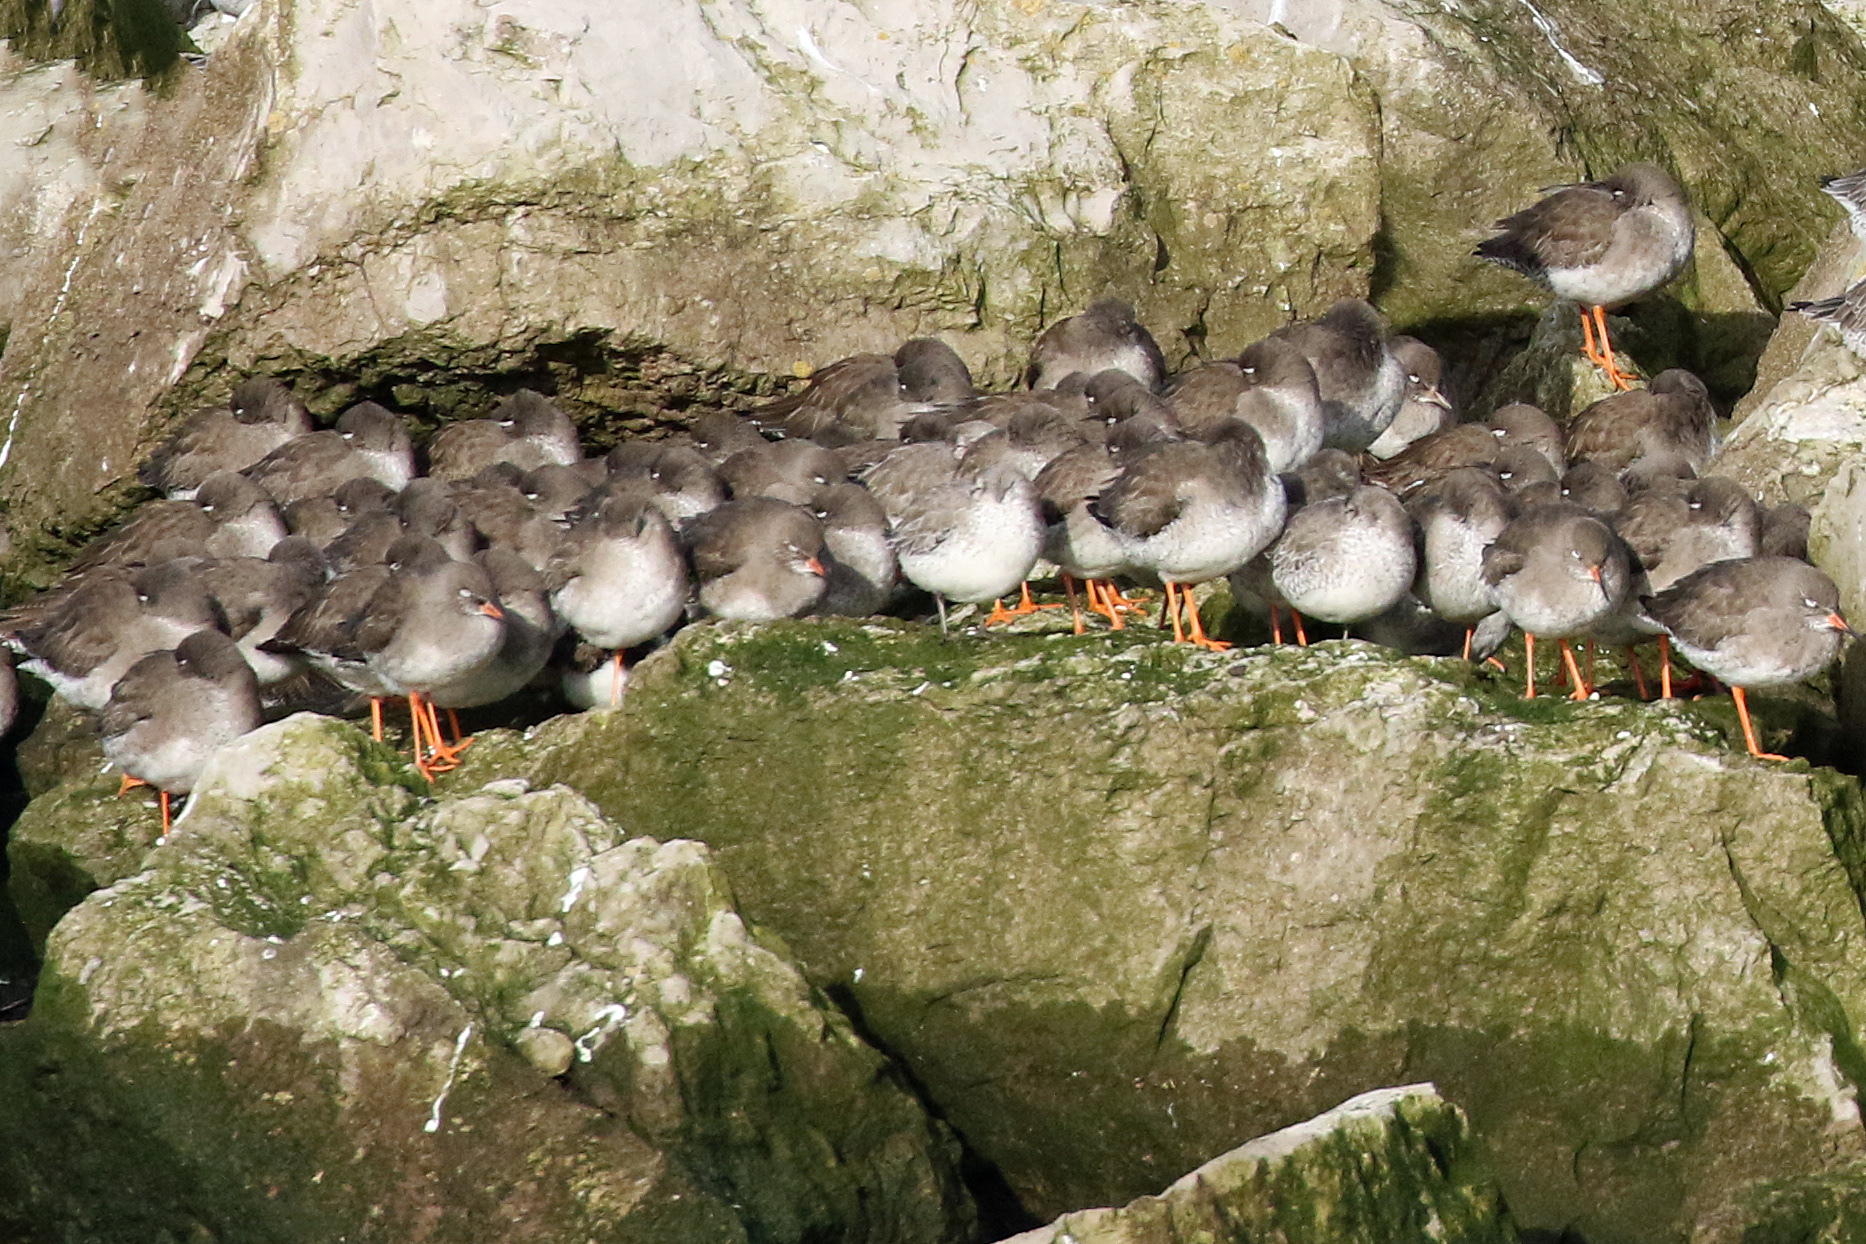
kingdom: Animalia
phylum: Chordata
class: Aves
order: Charadriiformes
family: Scolopacidae
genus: Tringa
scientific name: Tringa totanus
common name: Common redshank
